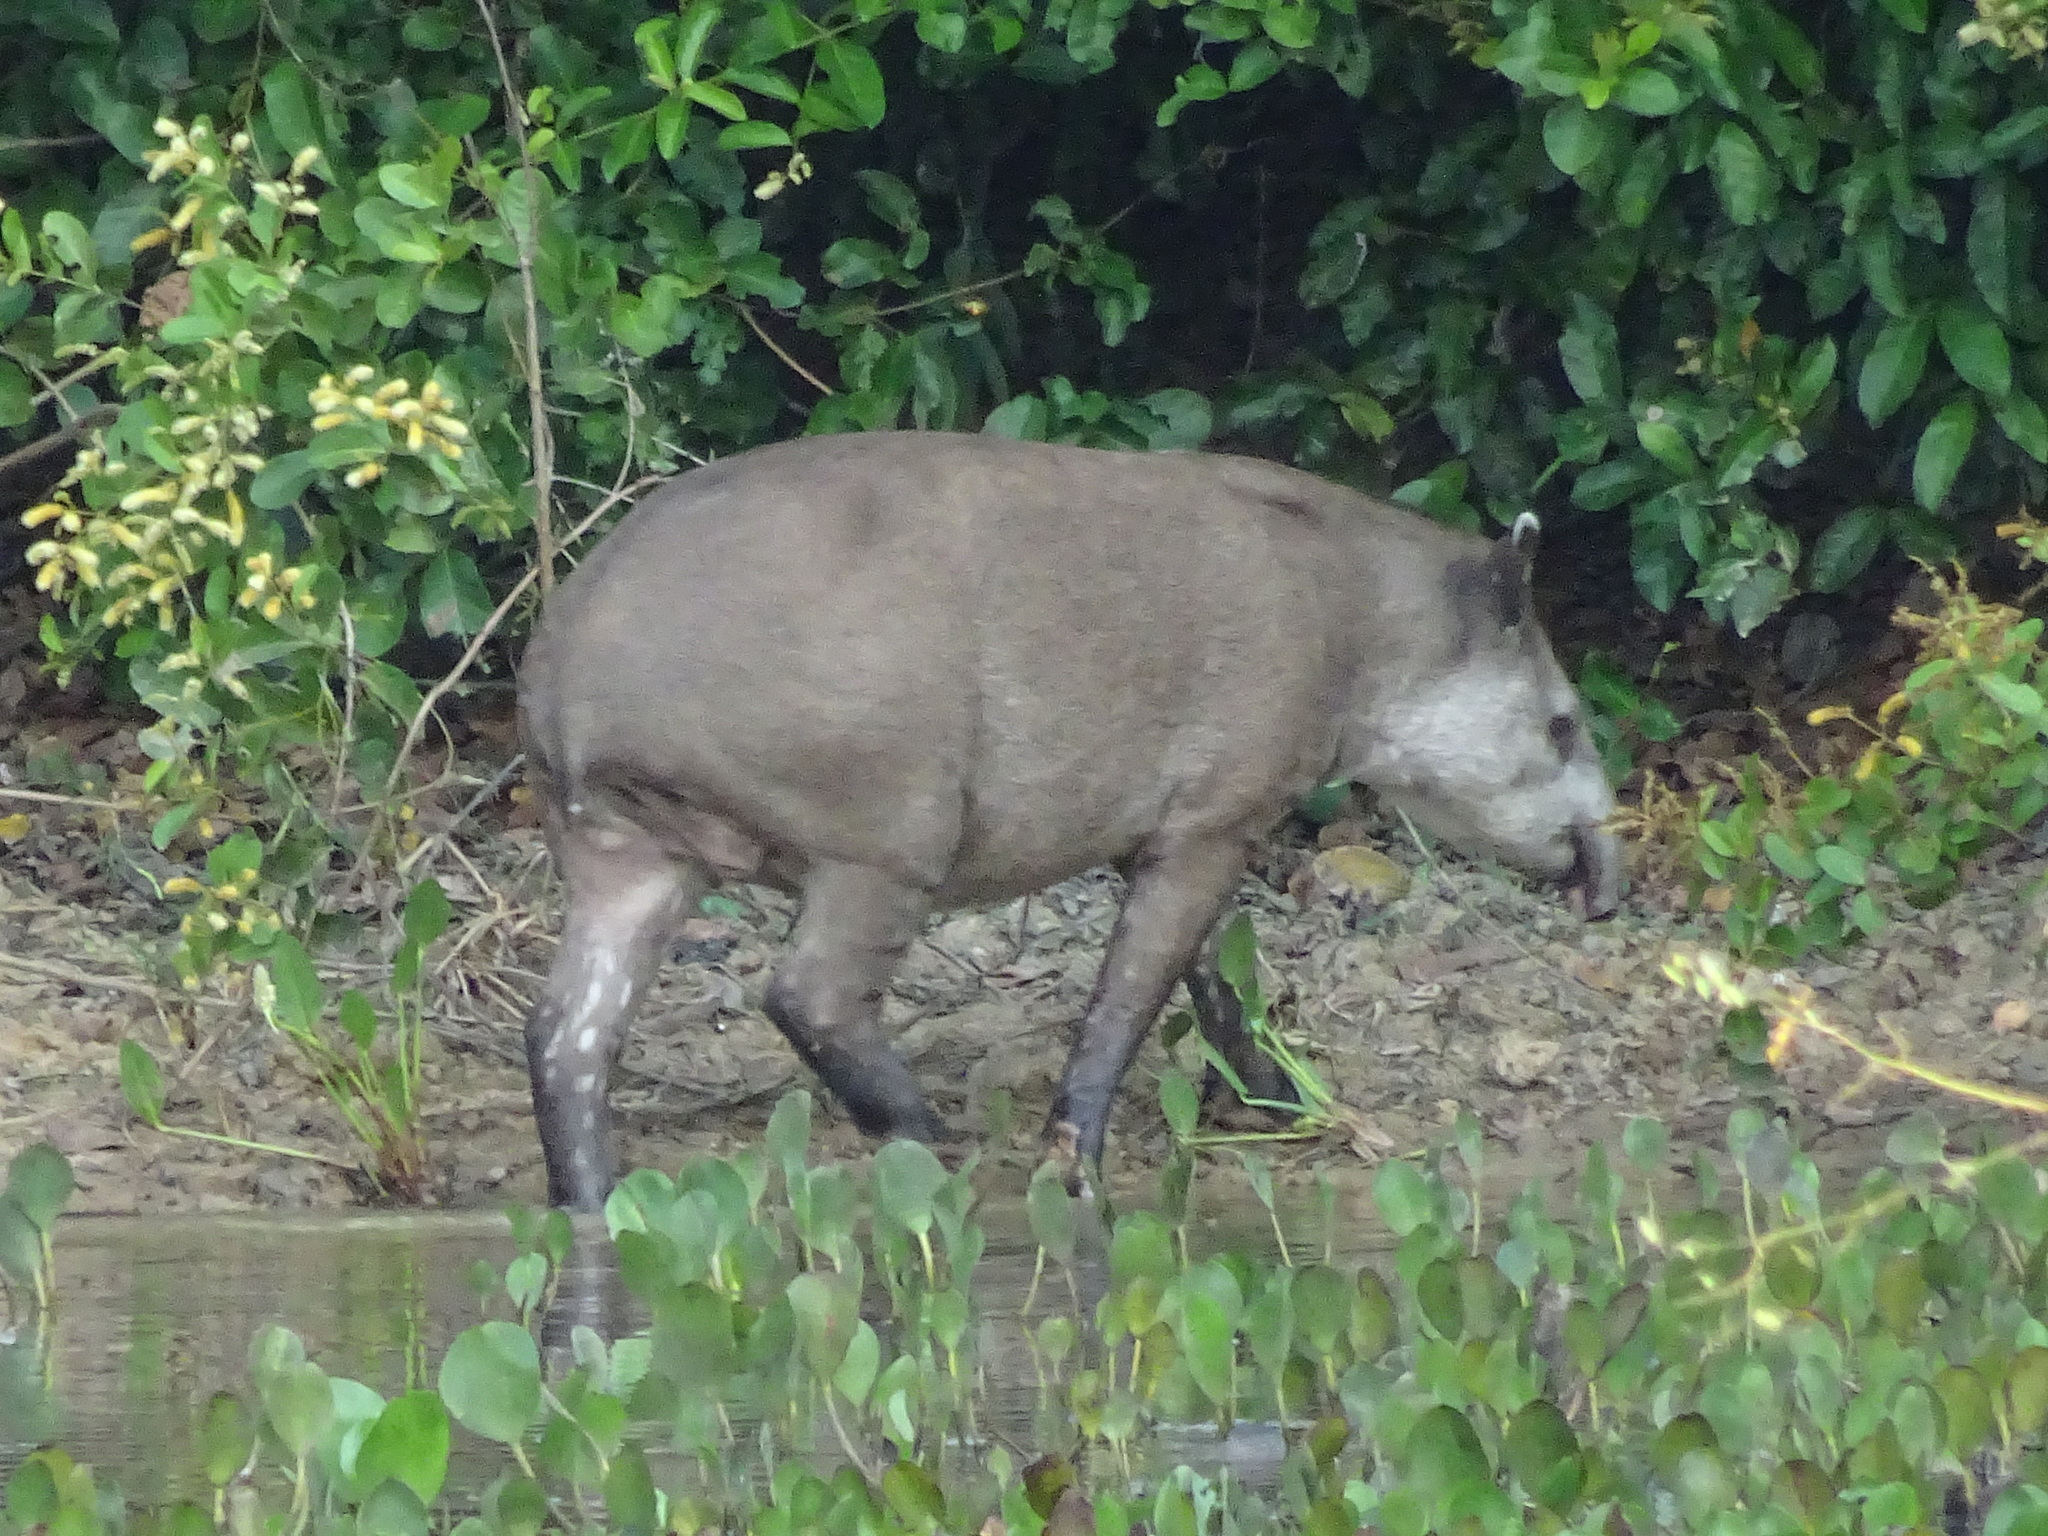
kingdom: Animalia
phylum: Chordata
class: Mammalia
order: Perissodactyla
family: Tapiridae
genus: Tapirus
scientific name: Tapirus terrestris
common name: Brazilian tapir
